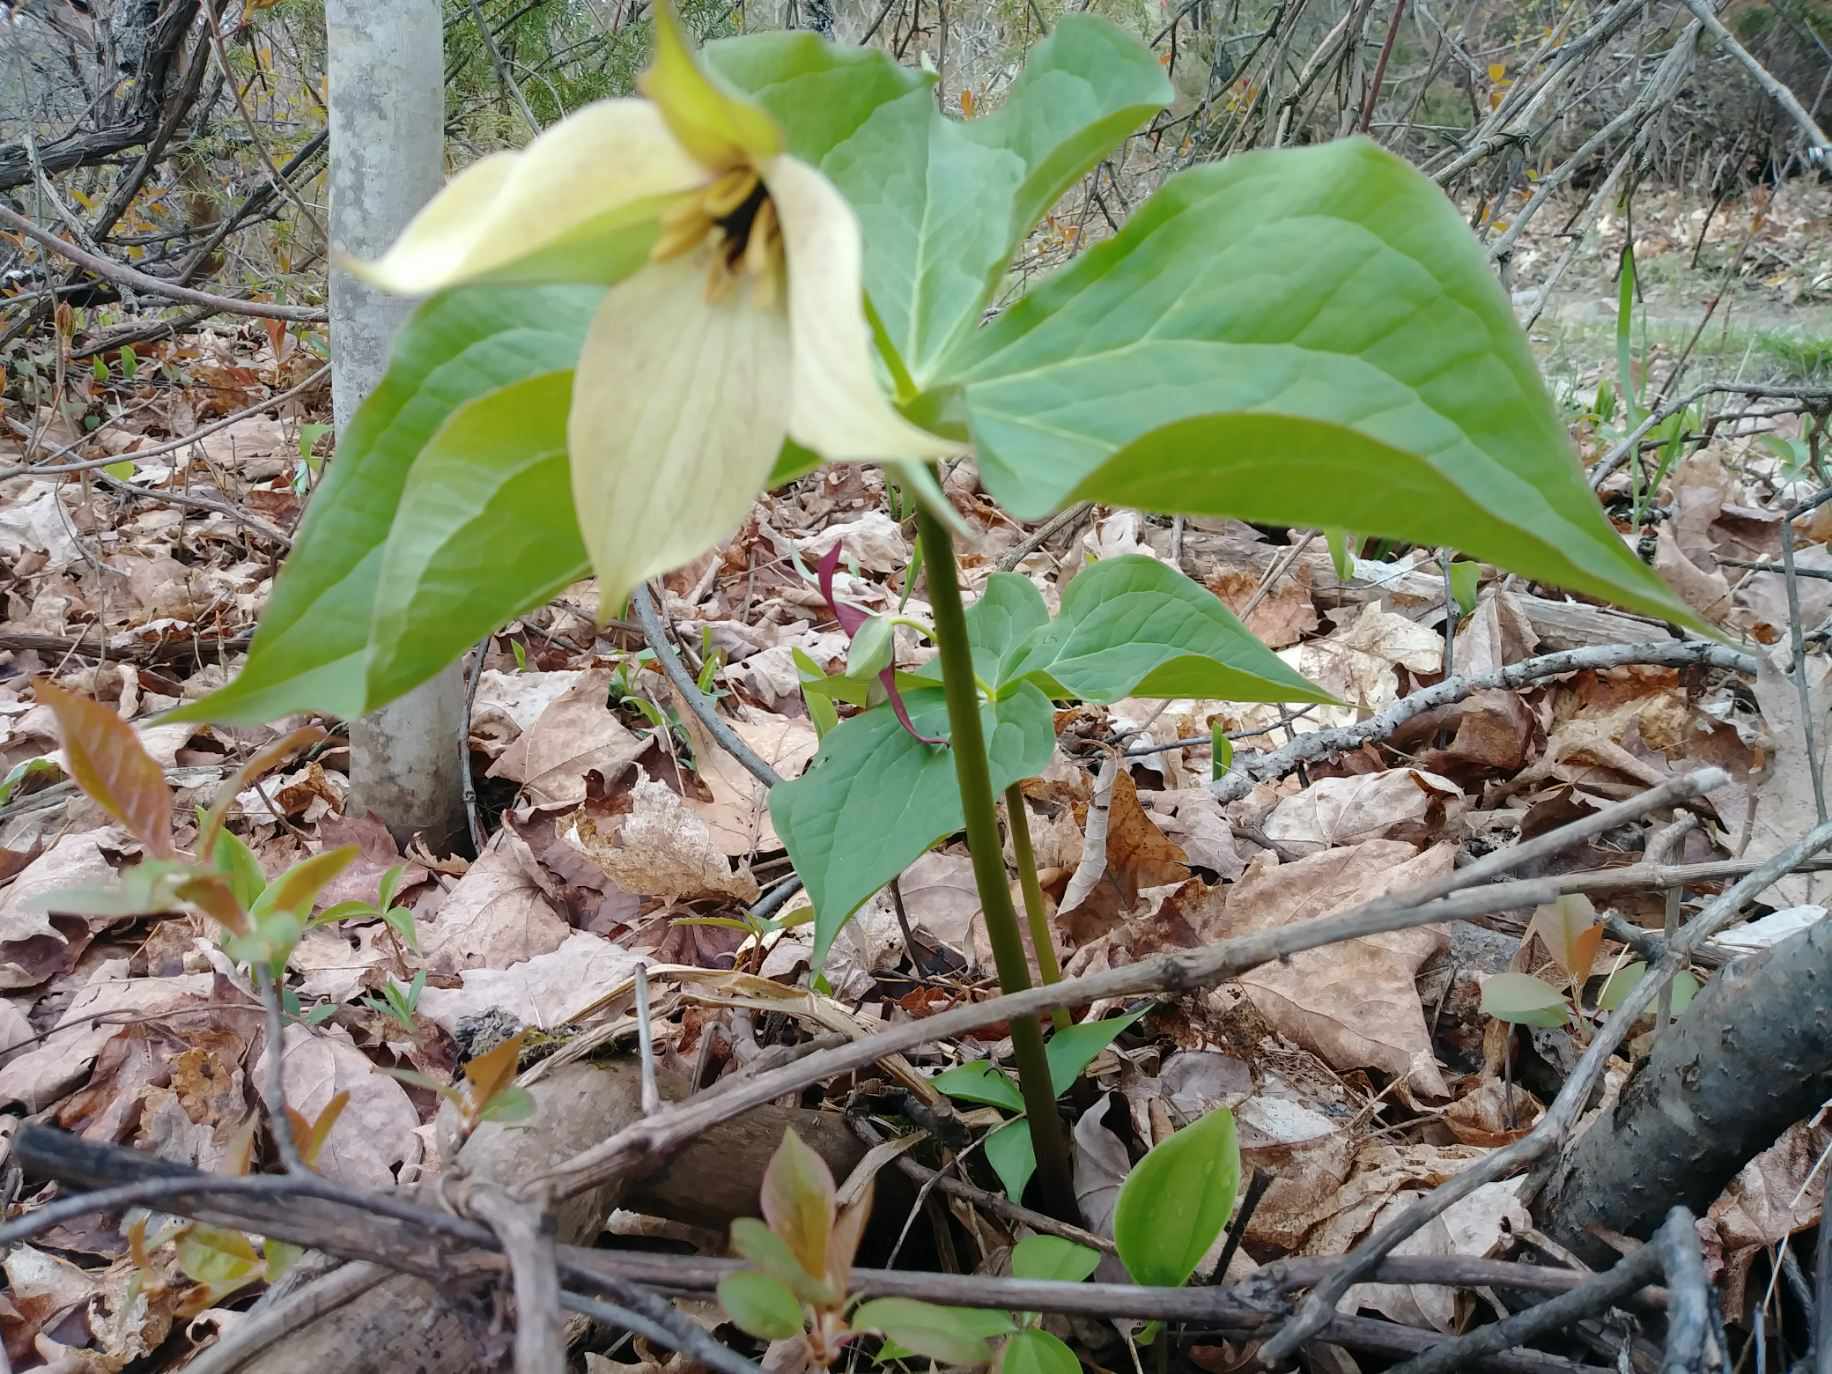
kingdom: Plantae
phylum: Tracheophyta
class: Liliopsida
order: Liliales
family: Melanthiaceae
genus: Trillium
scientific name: Trillium erectum
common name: Purple trillium
